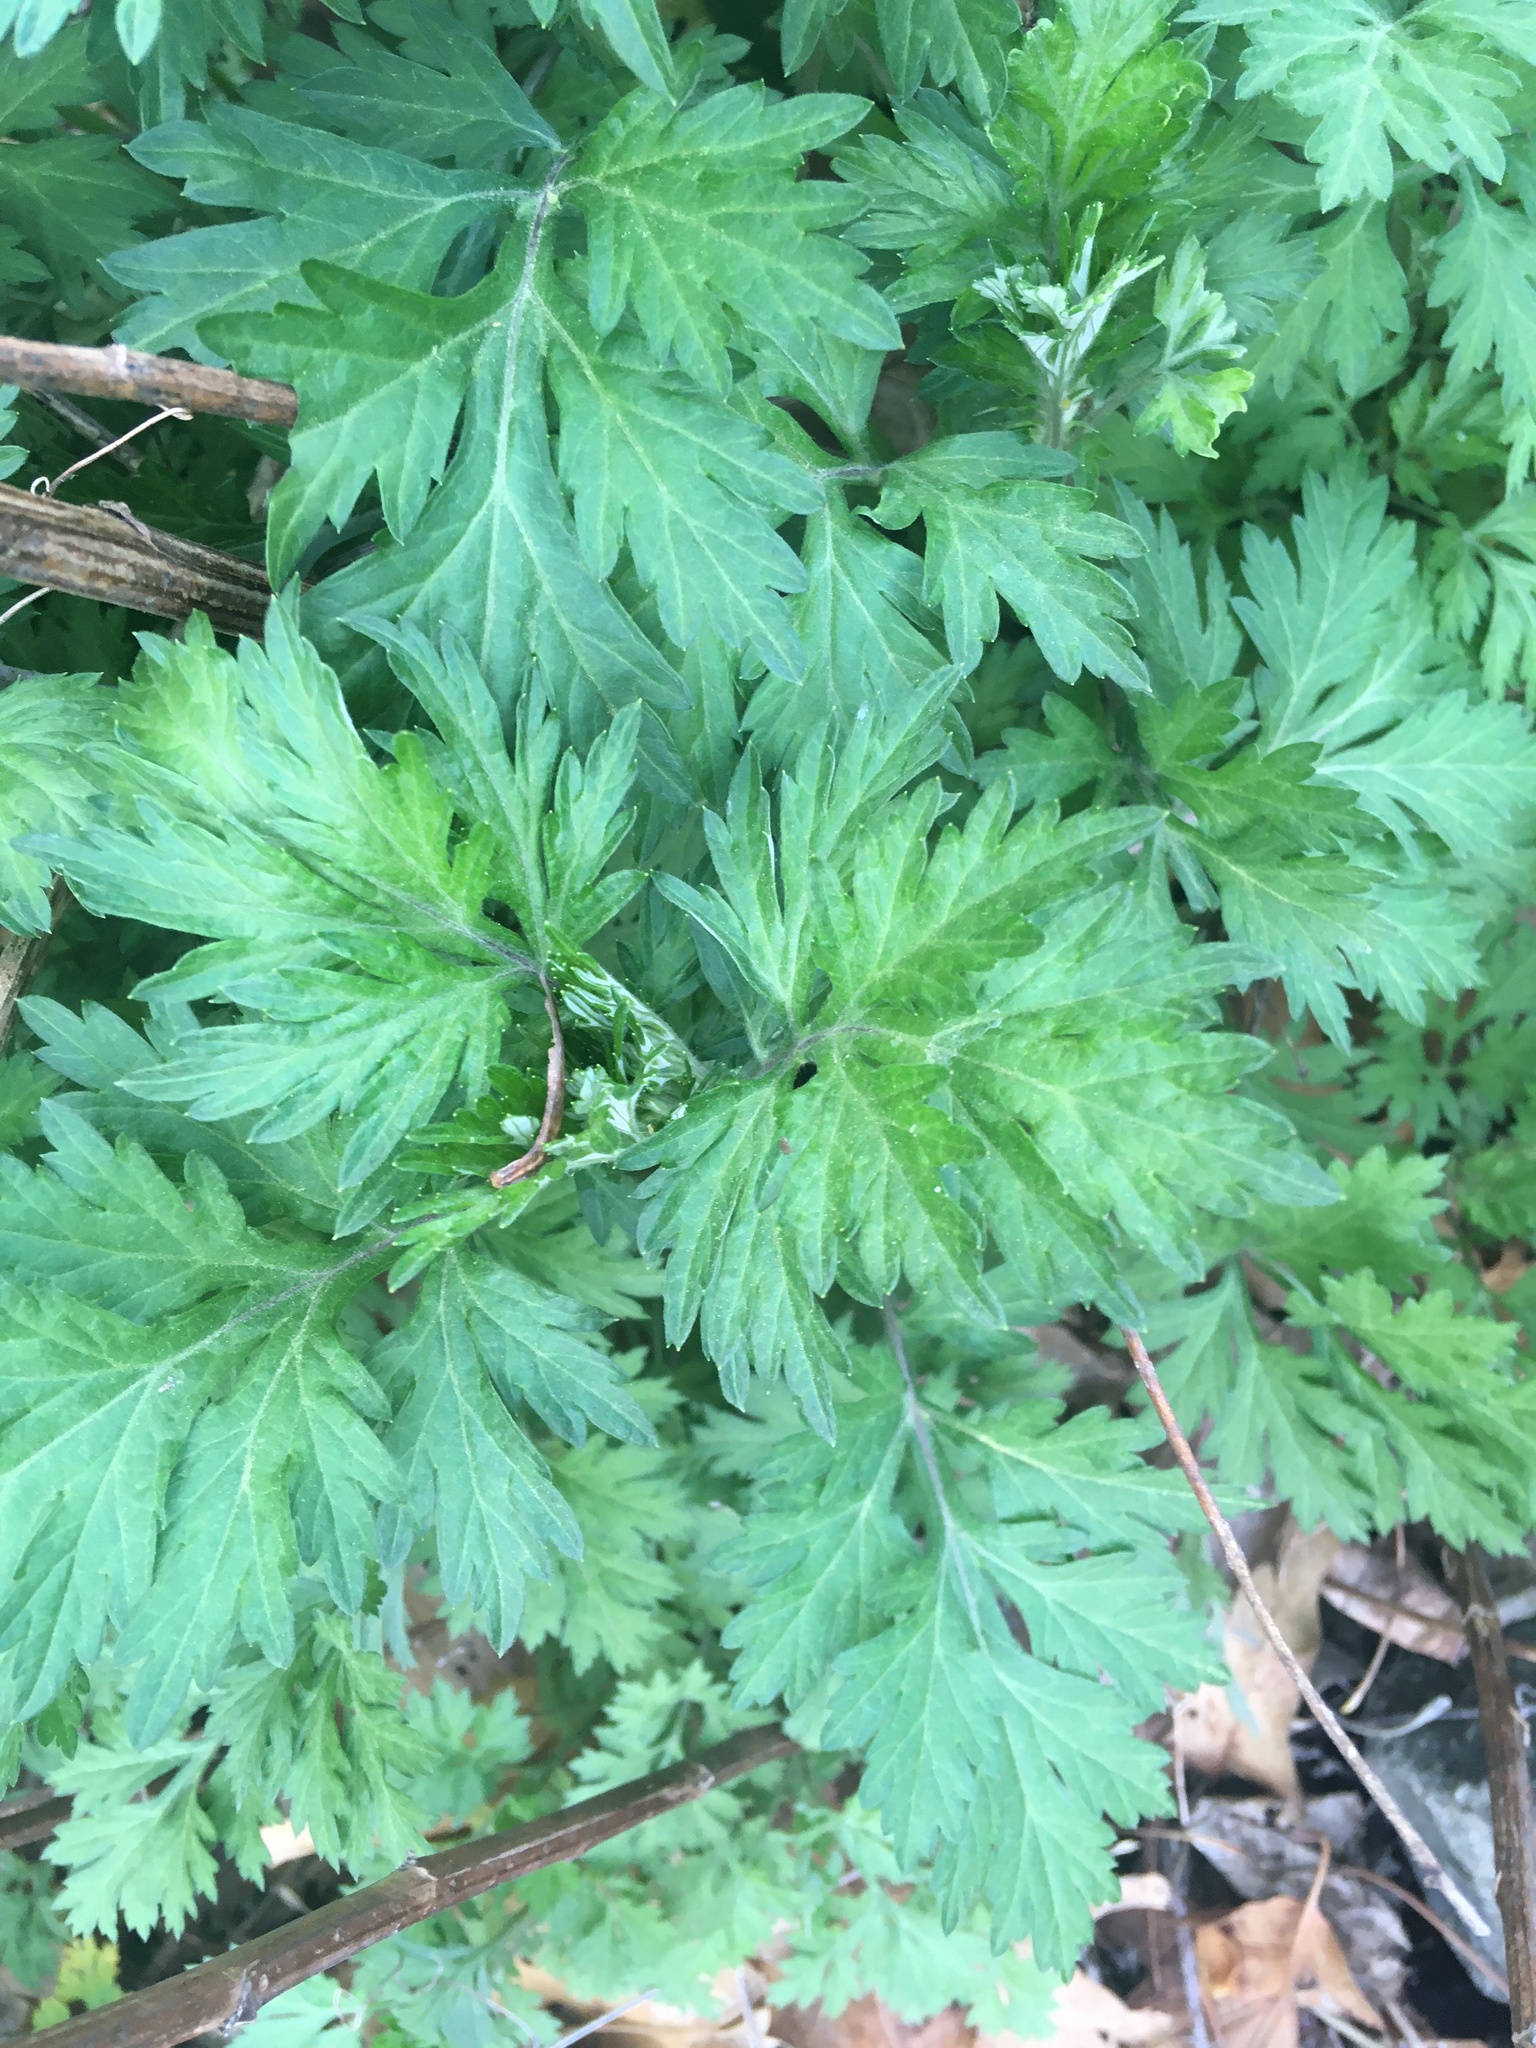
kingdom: Plantae
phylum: Tracheophyta
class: Magnoliopsida
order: Asterales
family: Asteraceae
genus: Artemisia
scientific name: Artemisia vulgaris
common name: Mugwort
